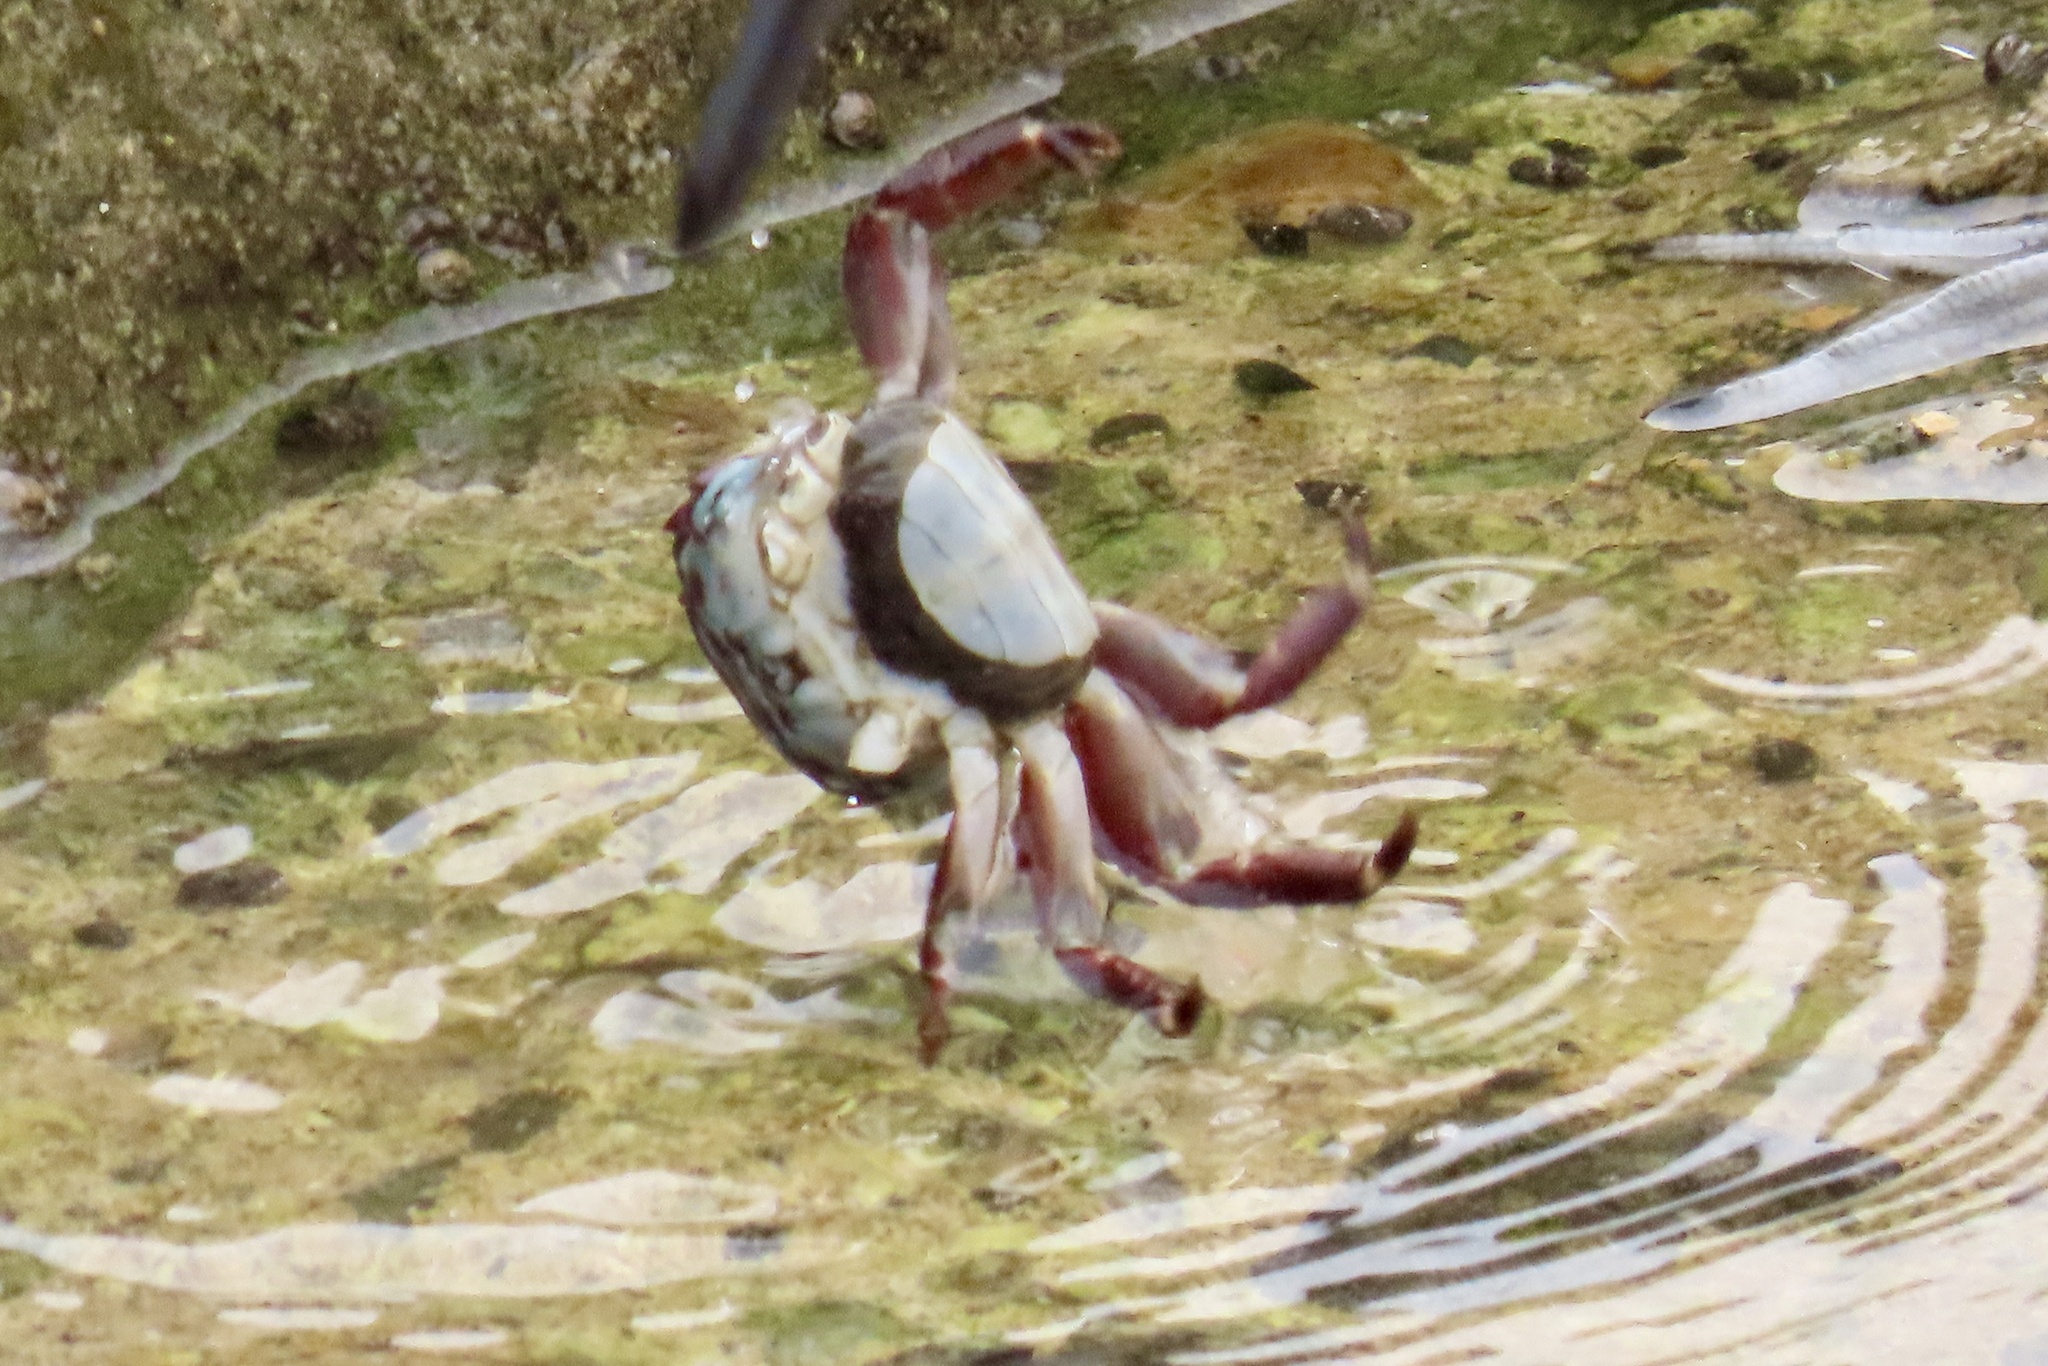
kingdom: Animalia
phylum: Arthropoda
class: Malacostraca
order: Decapoda
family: Grapsidae
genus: Pachygrapsus
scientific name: Pachygrapsus crassipes
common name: Striped shore crab
